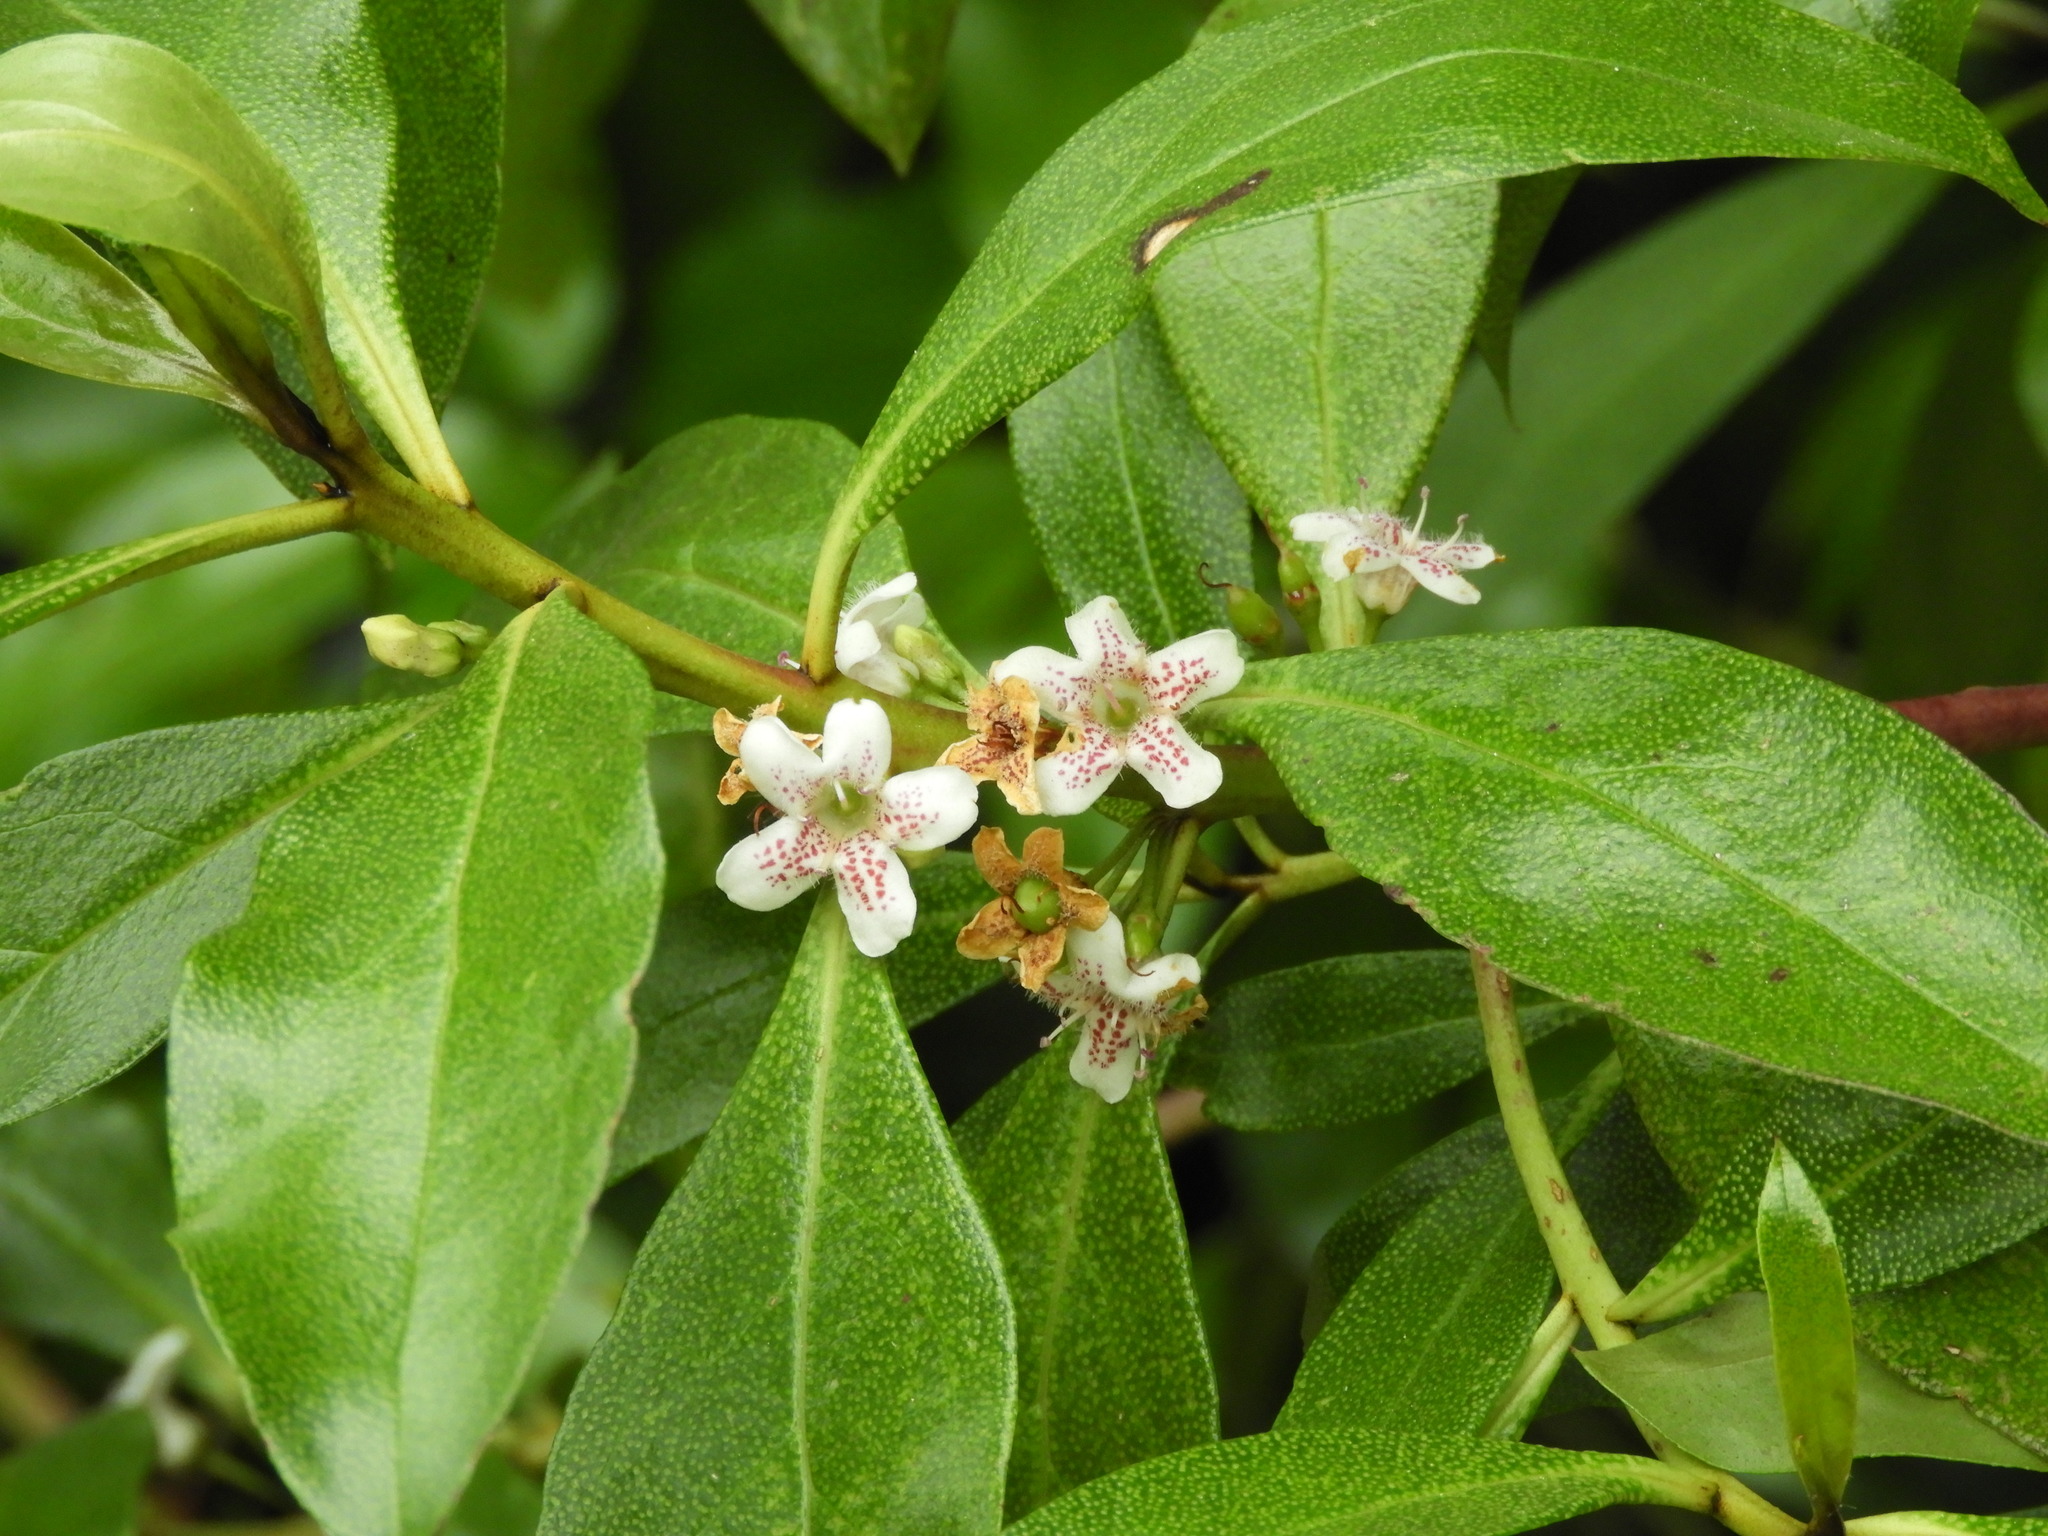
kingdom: Plantae
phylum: Tracheophyta
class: Magnoliopsida
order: Lamiales
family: Scrophulariaceae
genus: Myoporum
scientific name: Myoporum laetum
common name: Ngaio tree
